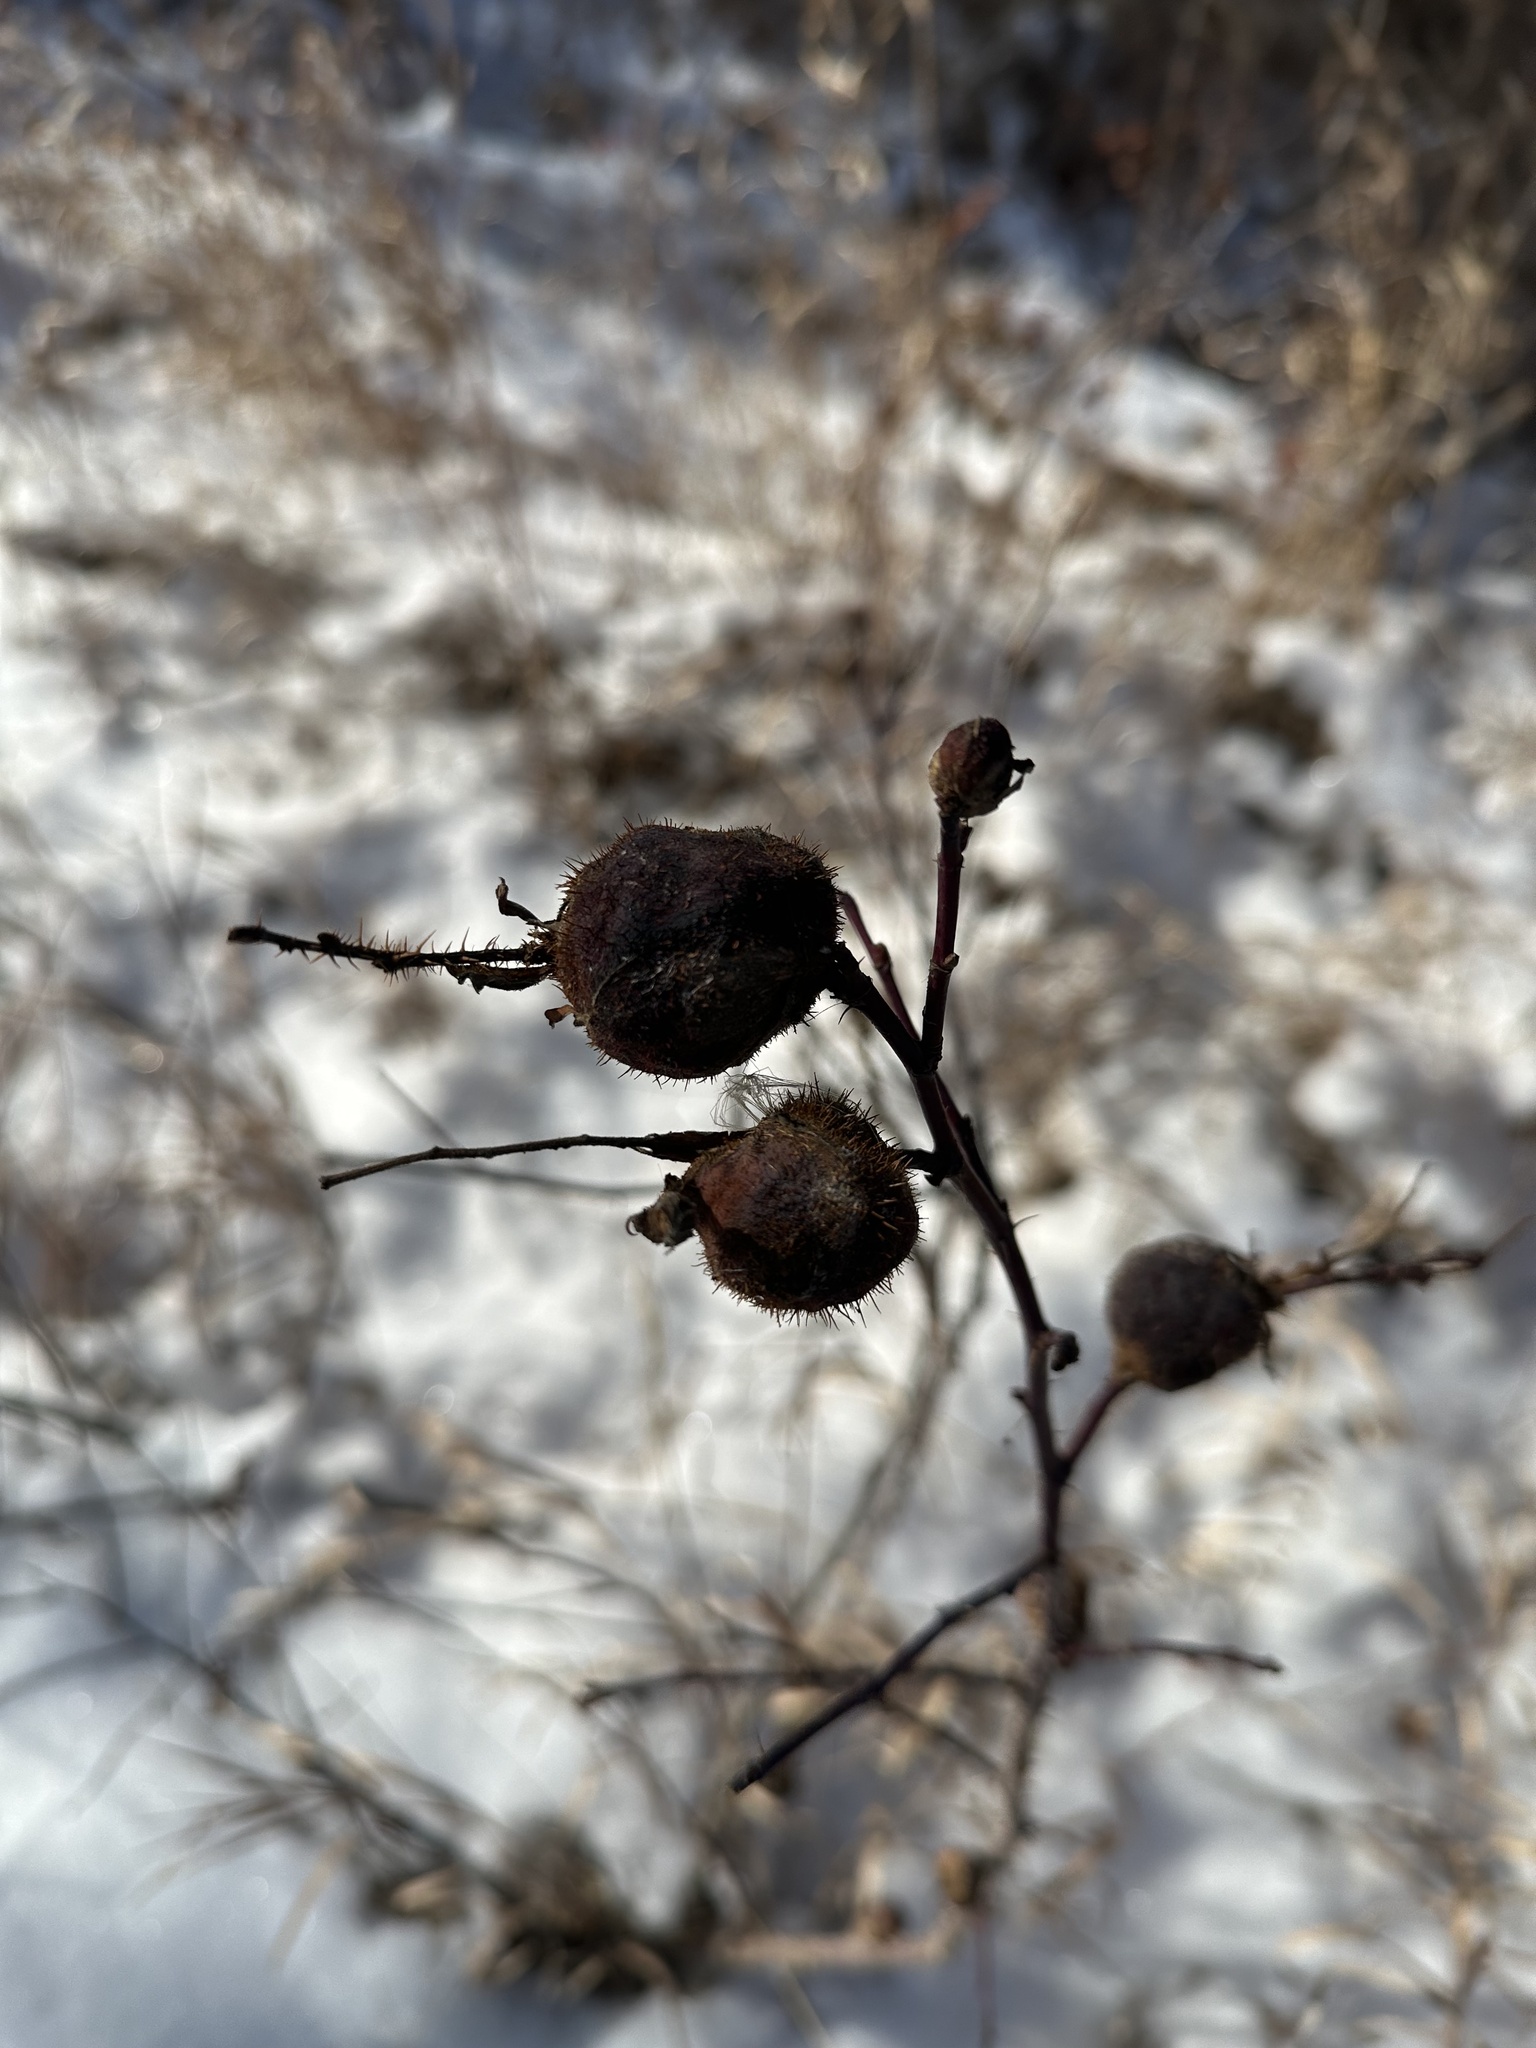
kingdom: Animalia
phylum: Arthropoda
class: Insecta
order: Hymenoptera
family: Cynipidae
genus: Diplolepis
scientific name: Diplolepis spinosa
